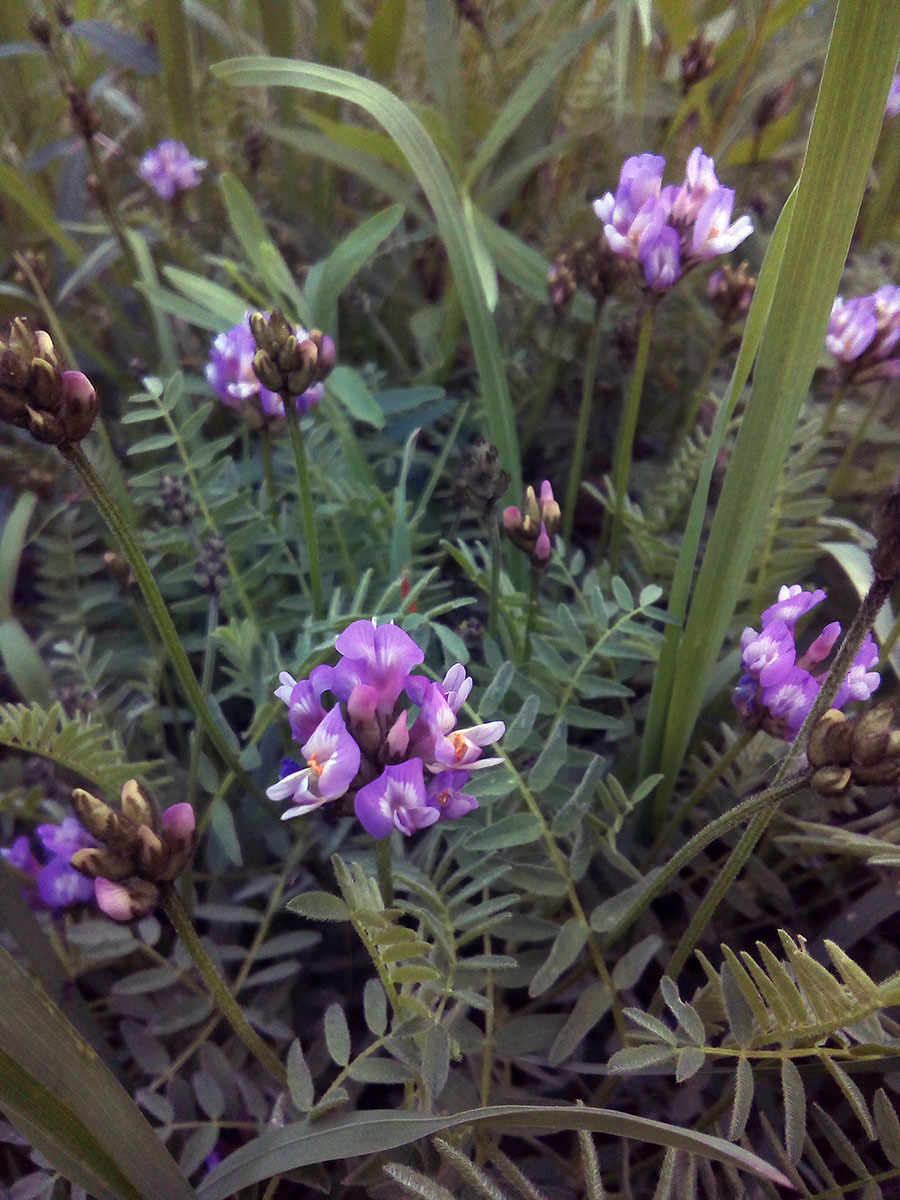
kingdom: Plantae
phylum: Tracheophyta
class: Magnoliopsida
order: Fabales
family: Fabaceae
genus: Astragalus
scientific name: Astragalus danicus
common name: Purple milk-vetch
